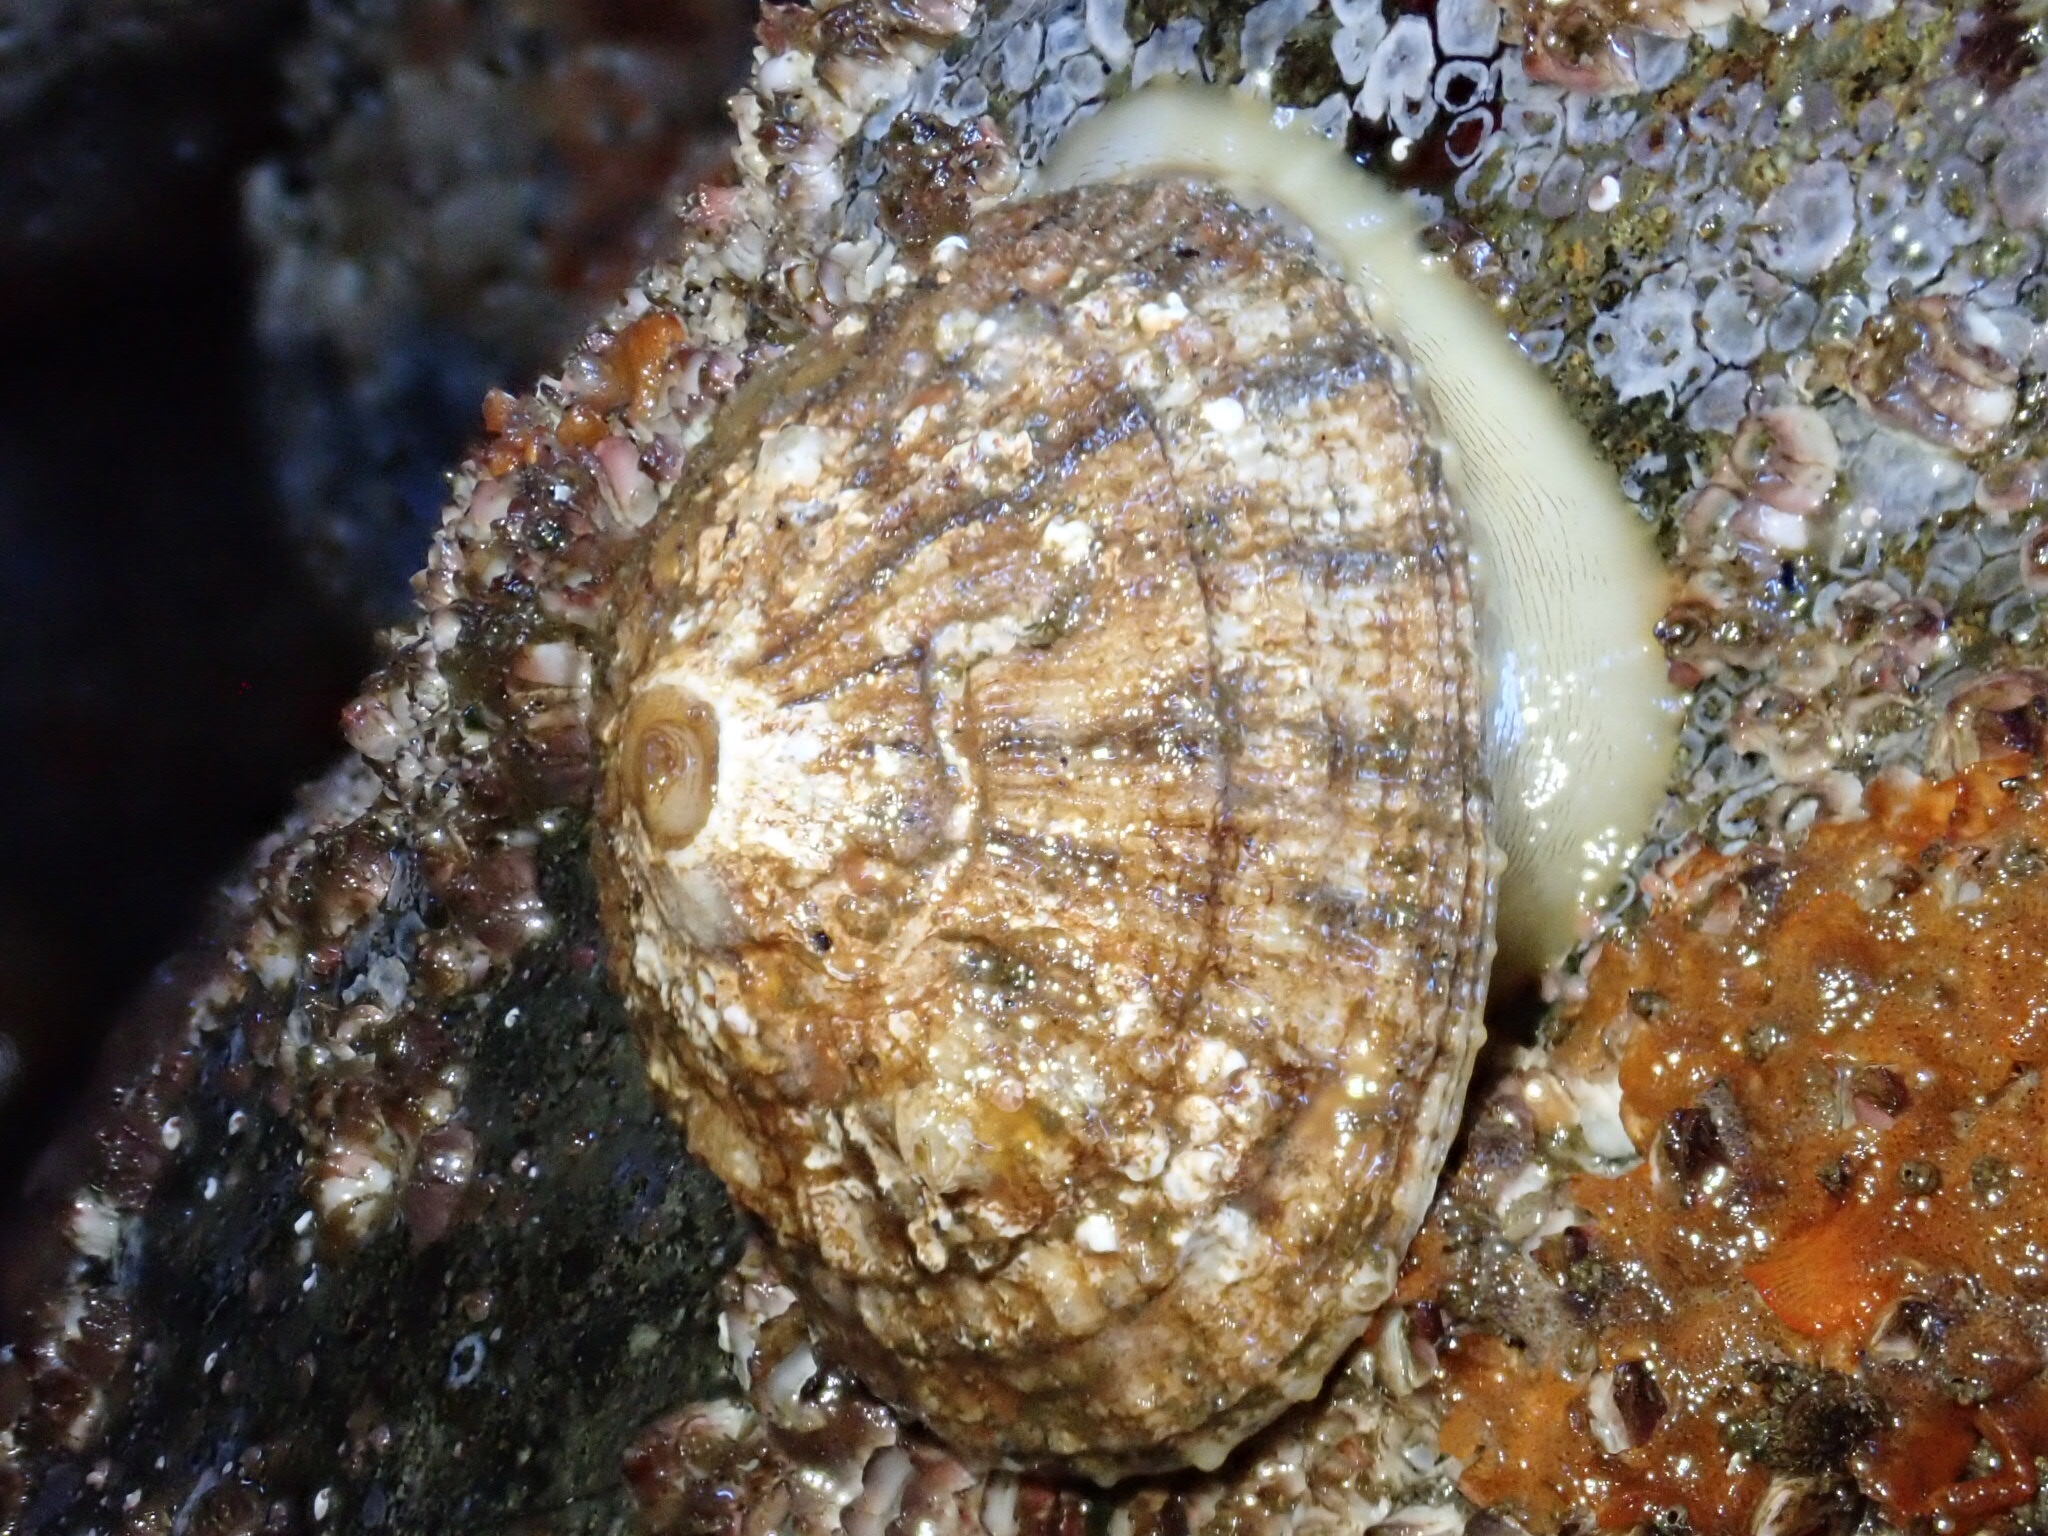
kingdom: Animalia
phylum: Mollusca
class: Gastropoda
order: Lepetellida
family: Fissurellidae
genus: Diodora
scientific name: Diodora aspera
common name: Rough keyhole limpet
